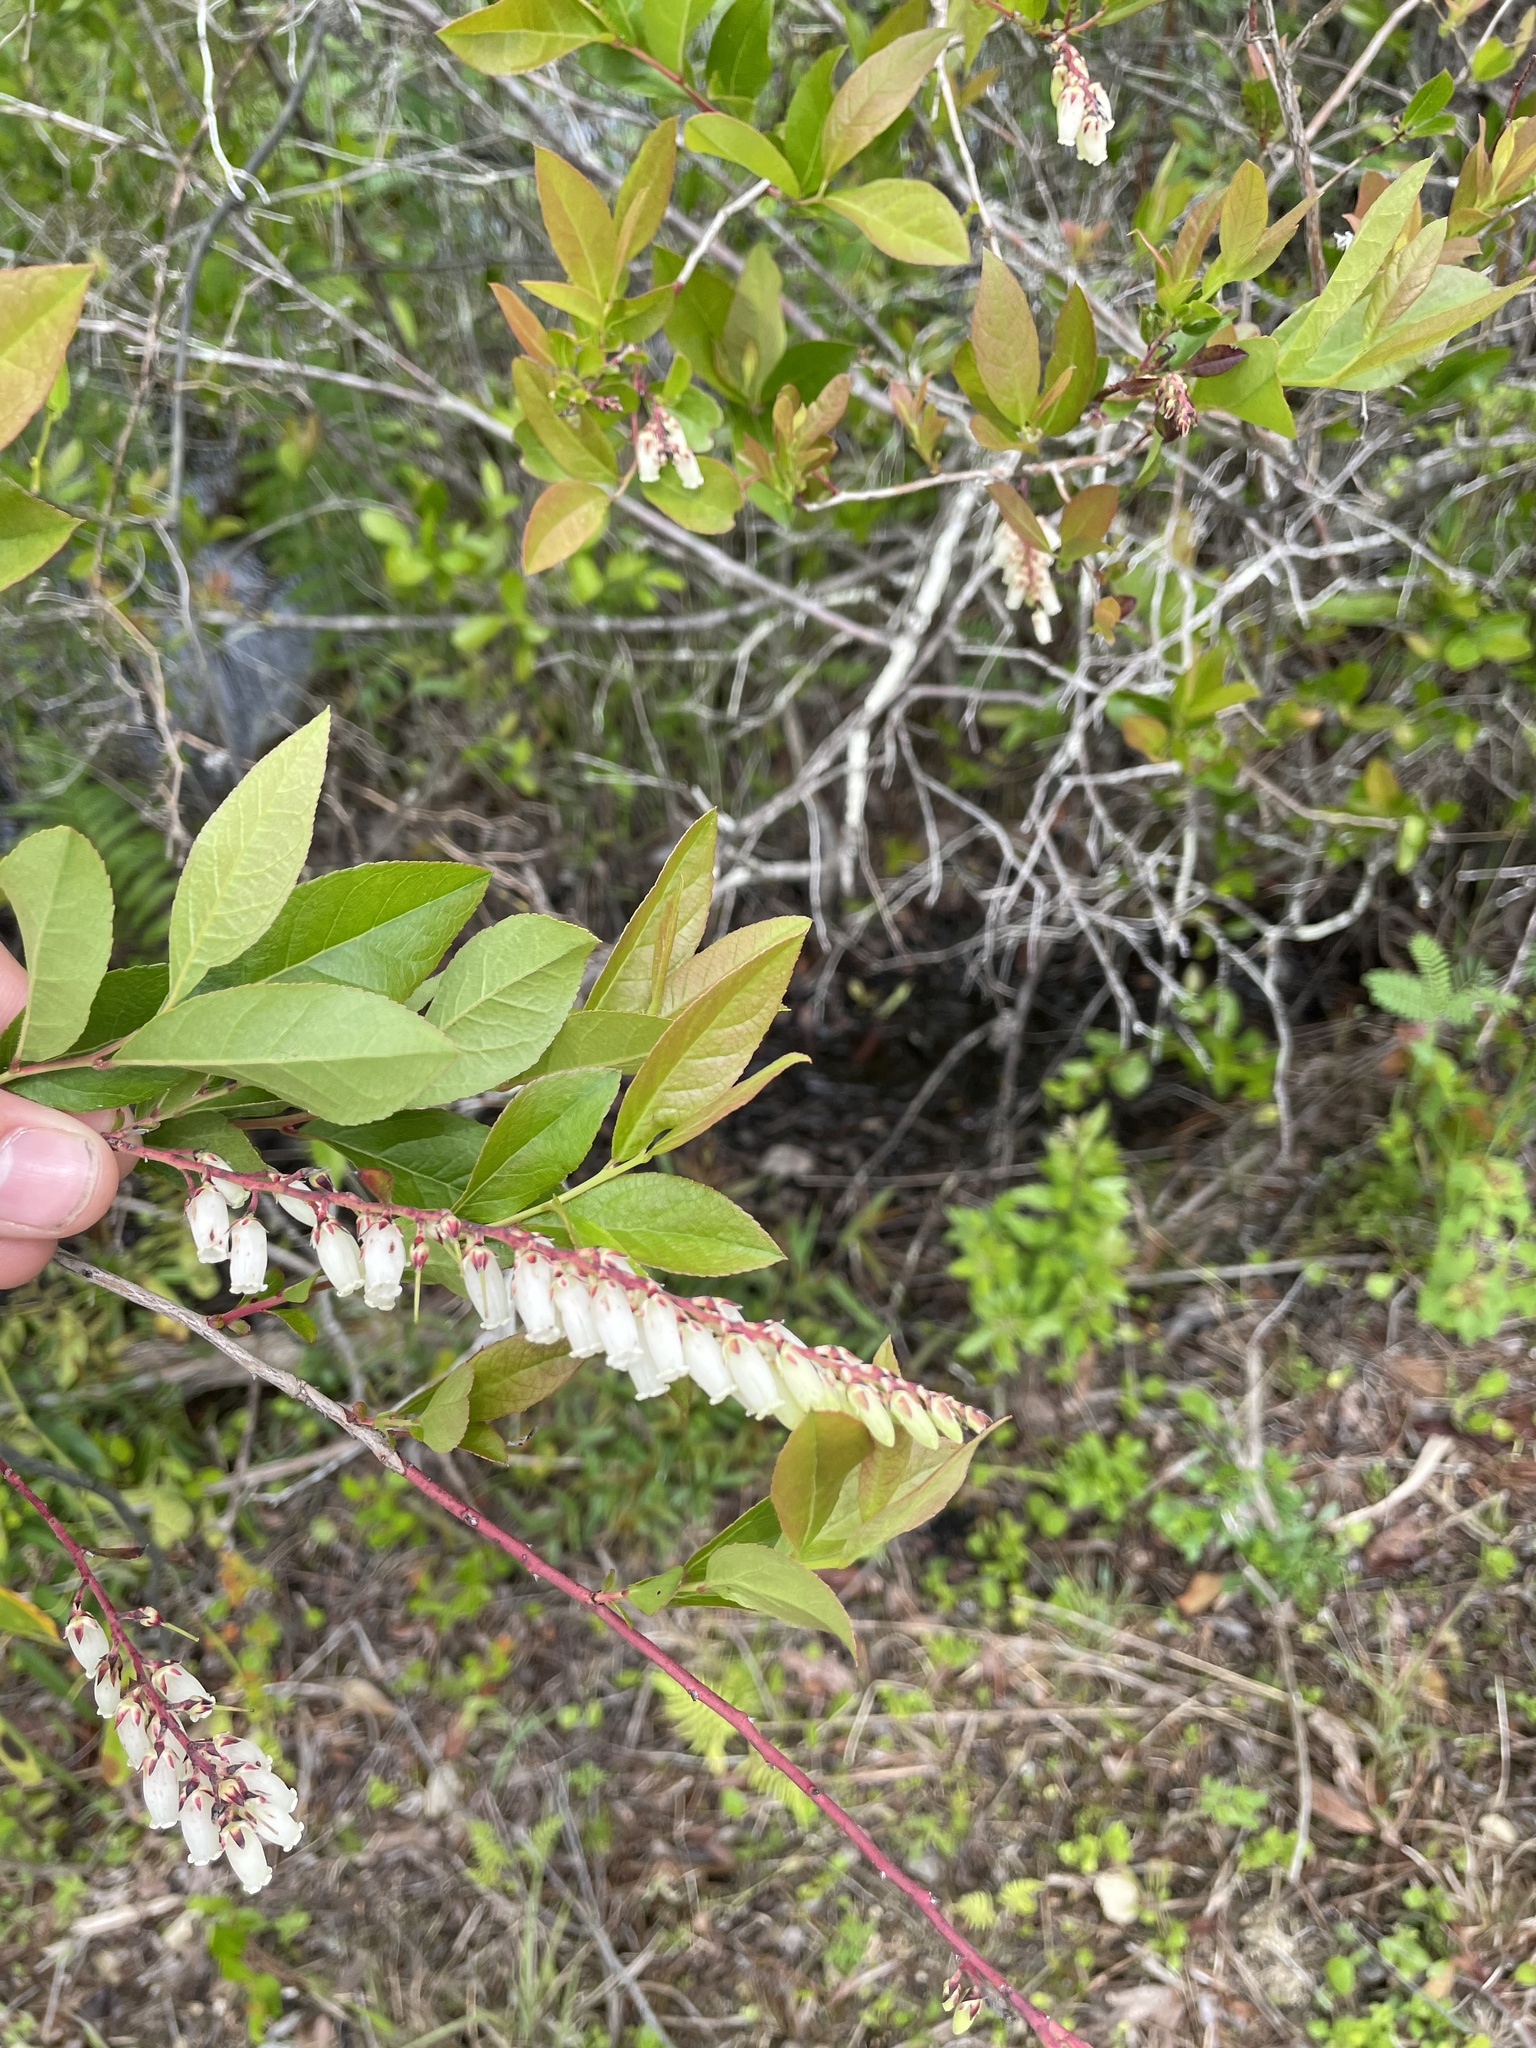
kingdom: Plantae
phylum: Tracheophyta
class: Magnoliopsida
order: Ericales
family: Ericaceae
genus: Eubotrys
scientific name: Eubotrys racemosa
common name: Fetterbush
